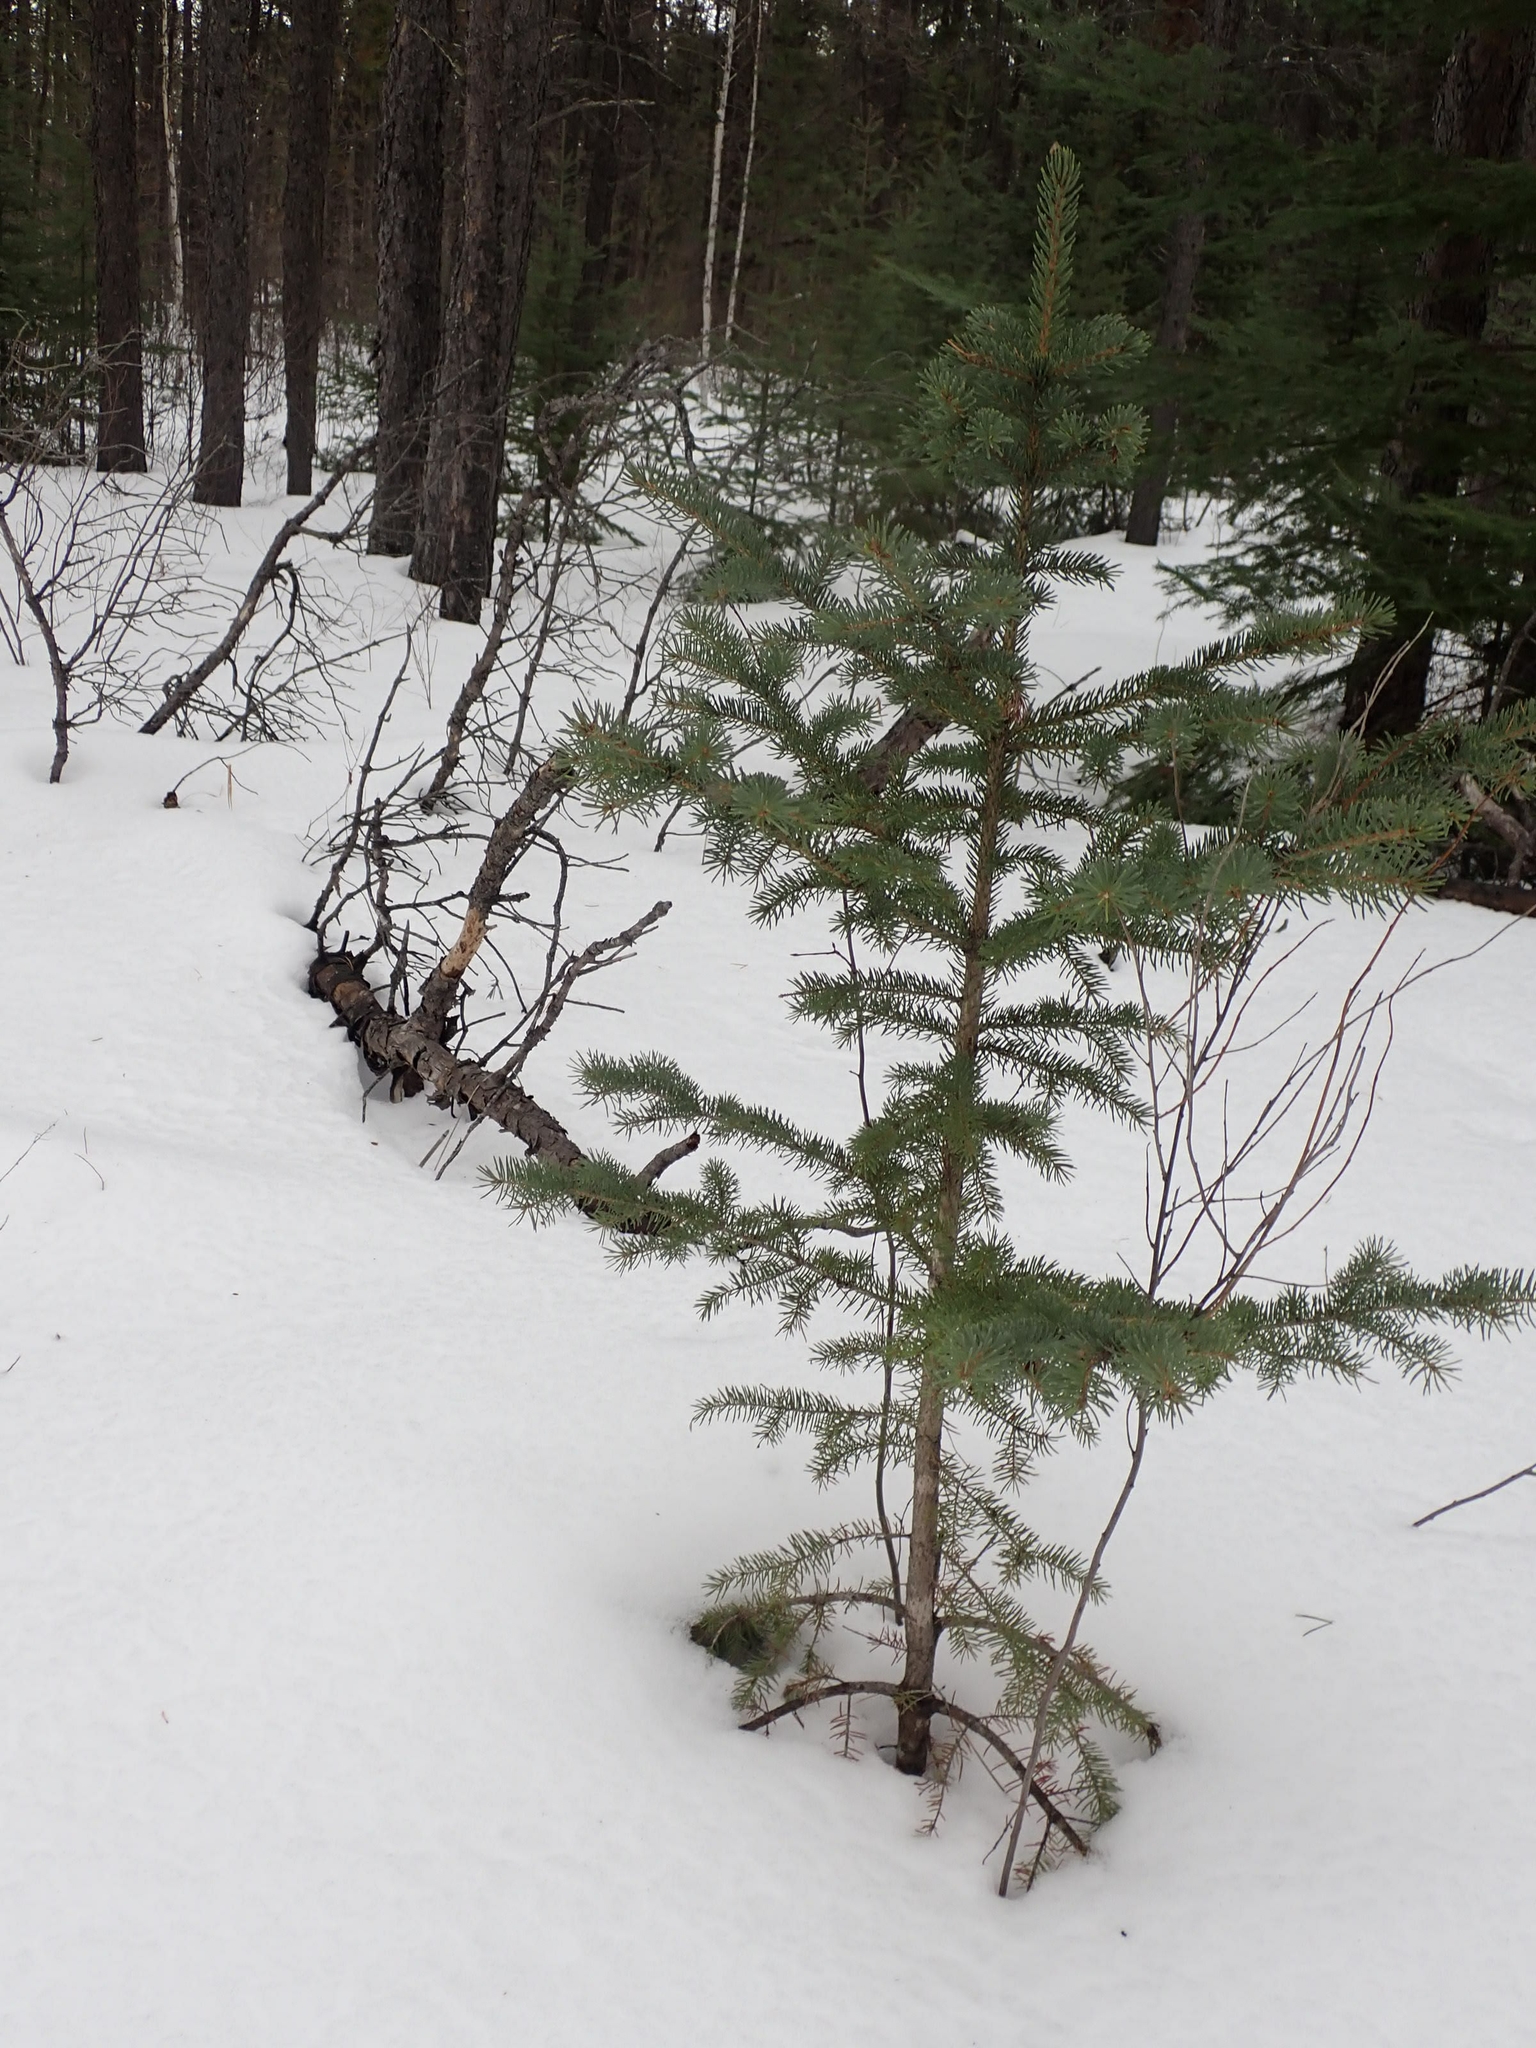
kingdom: Plantae
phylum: Tracheophyta
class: Pinopsida
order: Pinales
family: Pinaceae
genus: Picea
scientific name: Picea glauca
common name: White spruce
